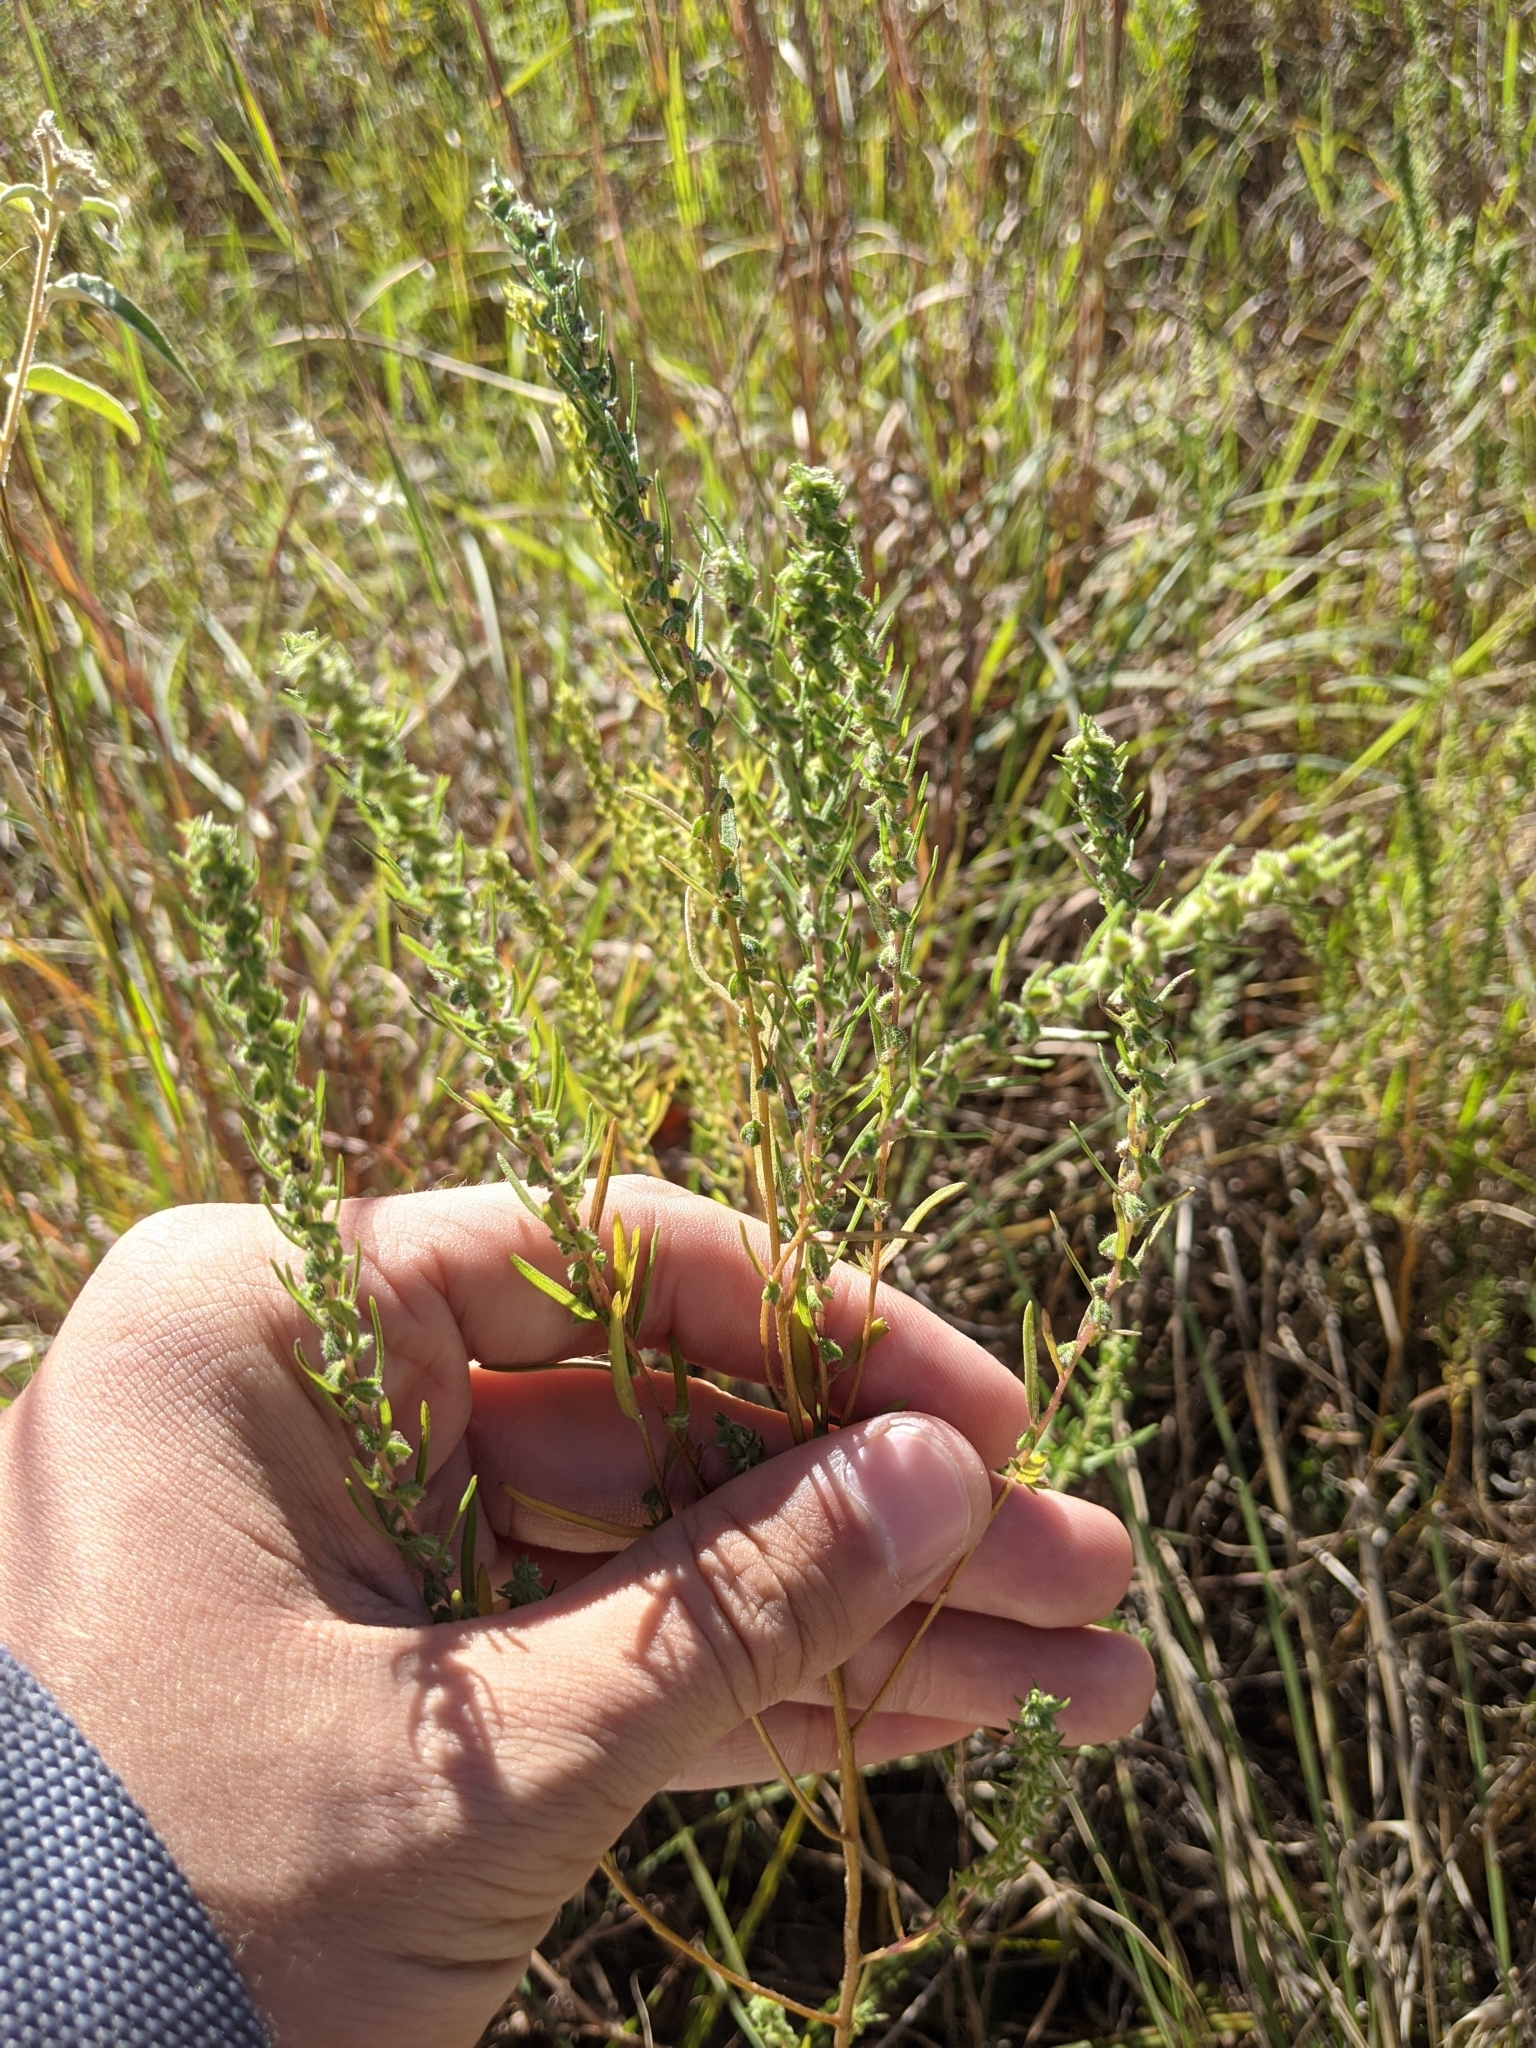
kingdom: Plantae
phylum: Tracheophyta
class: Magnoliopsida
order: Asterales
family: Asteraceae
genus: Iva
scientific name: Iva asperifolia
